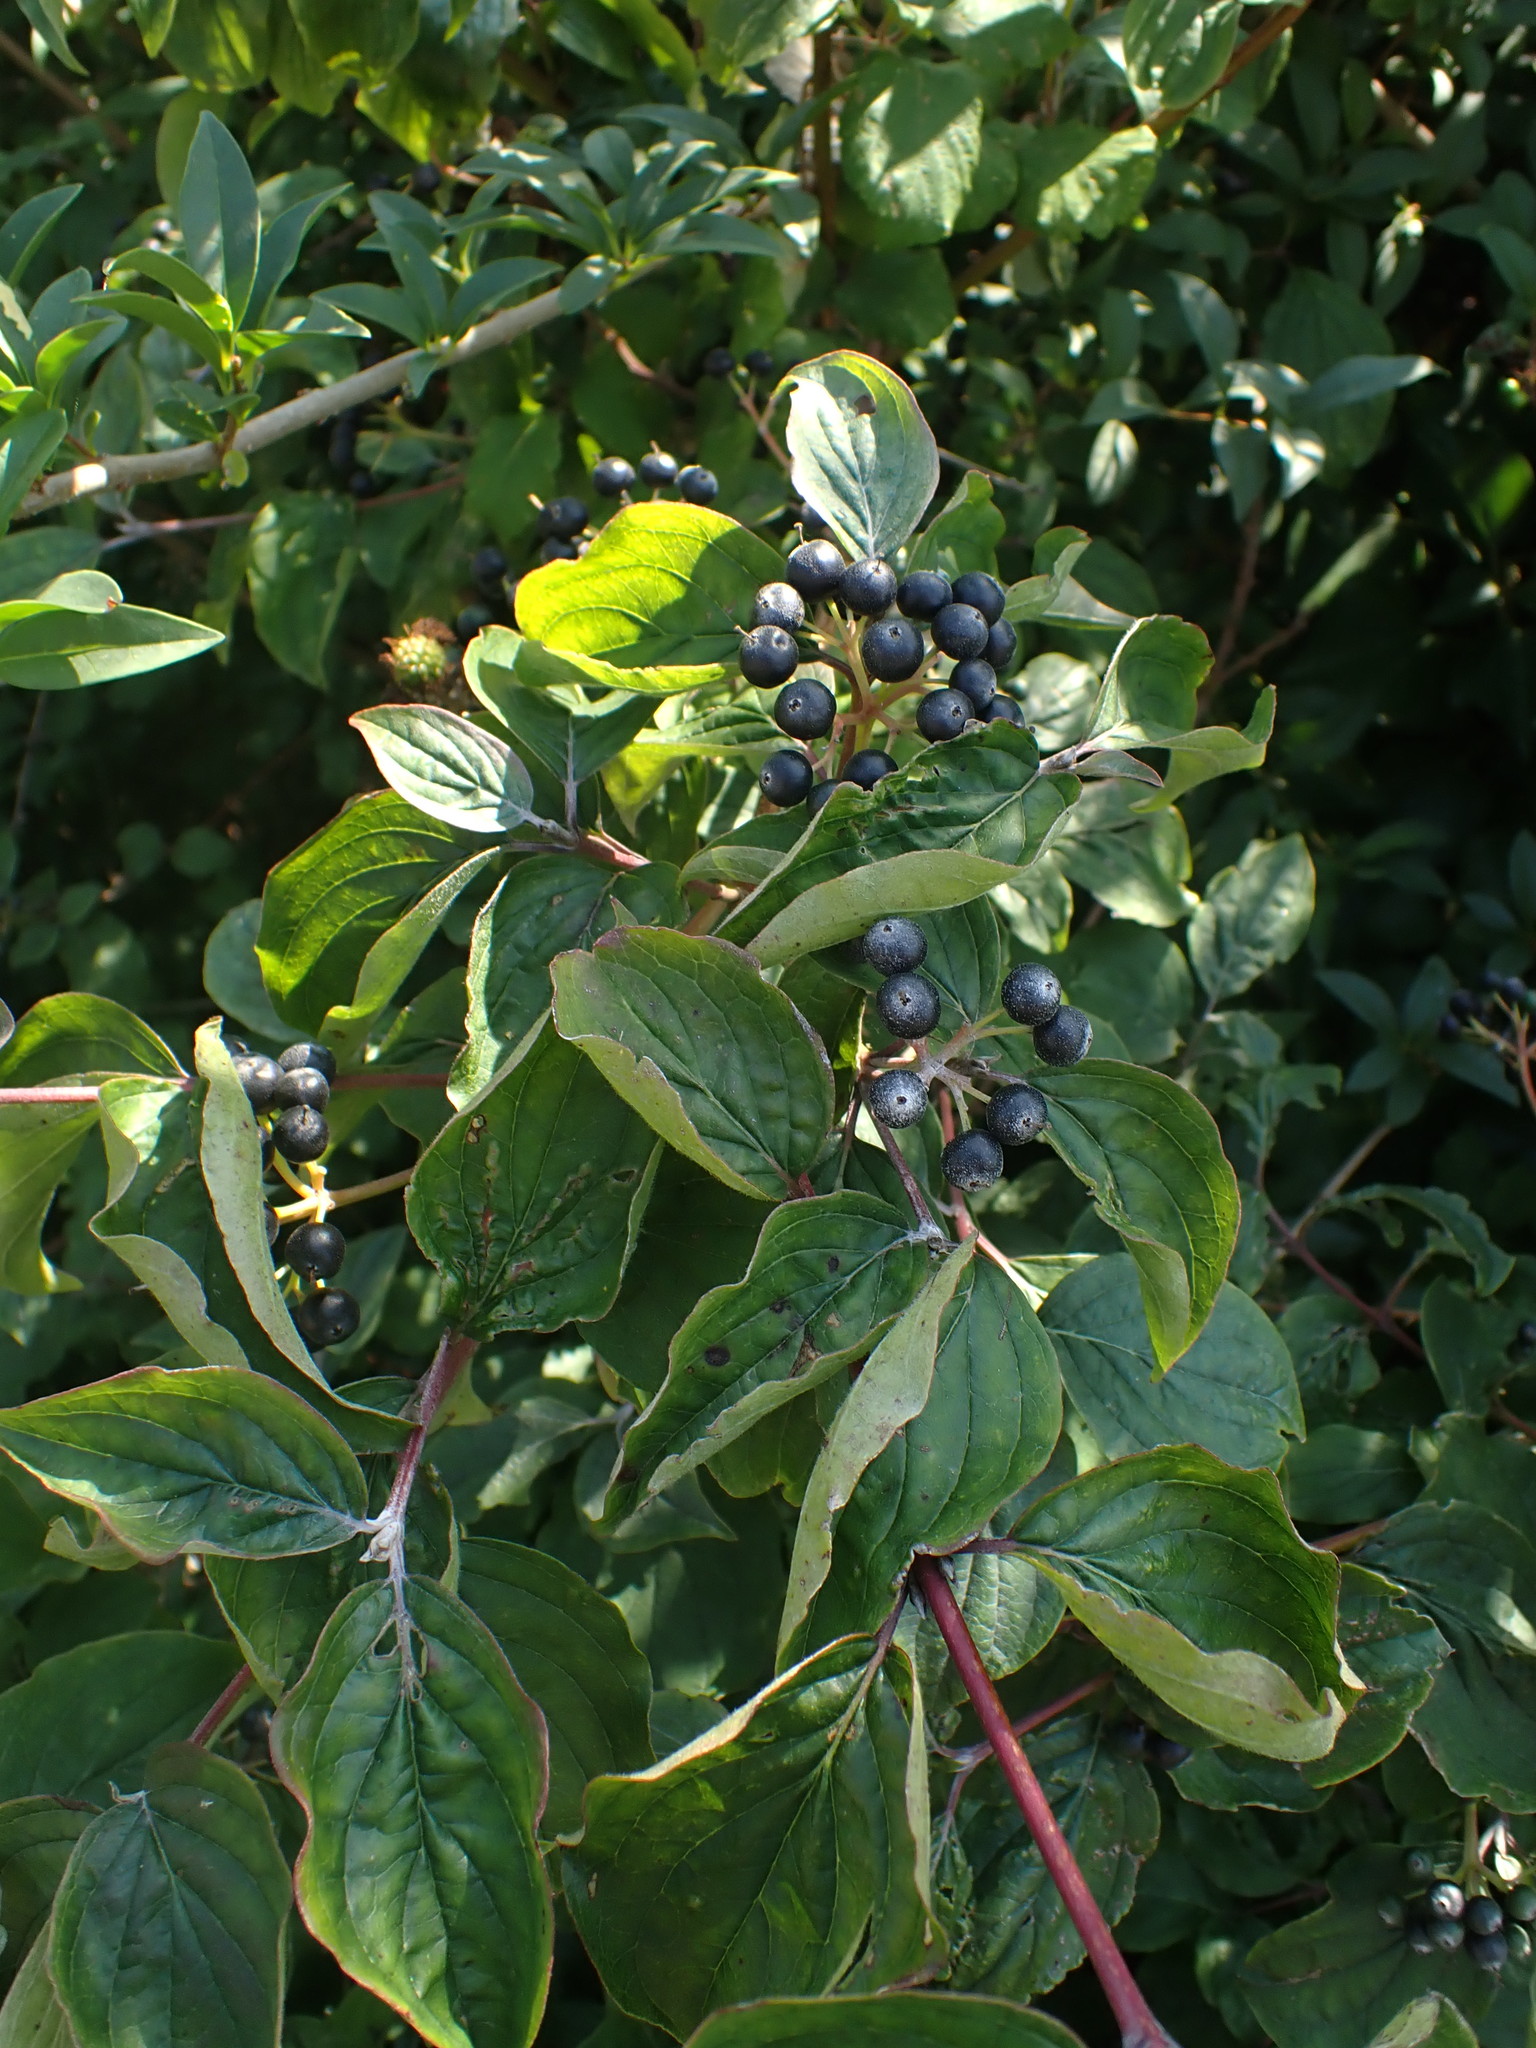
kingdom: Plantae
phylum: Tracheophyta
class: Magnoliopsida
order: Cornales
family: Cornaceae
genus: Cornus
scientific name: Cornus sanguinea
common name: Dogwood
